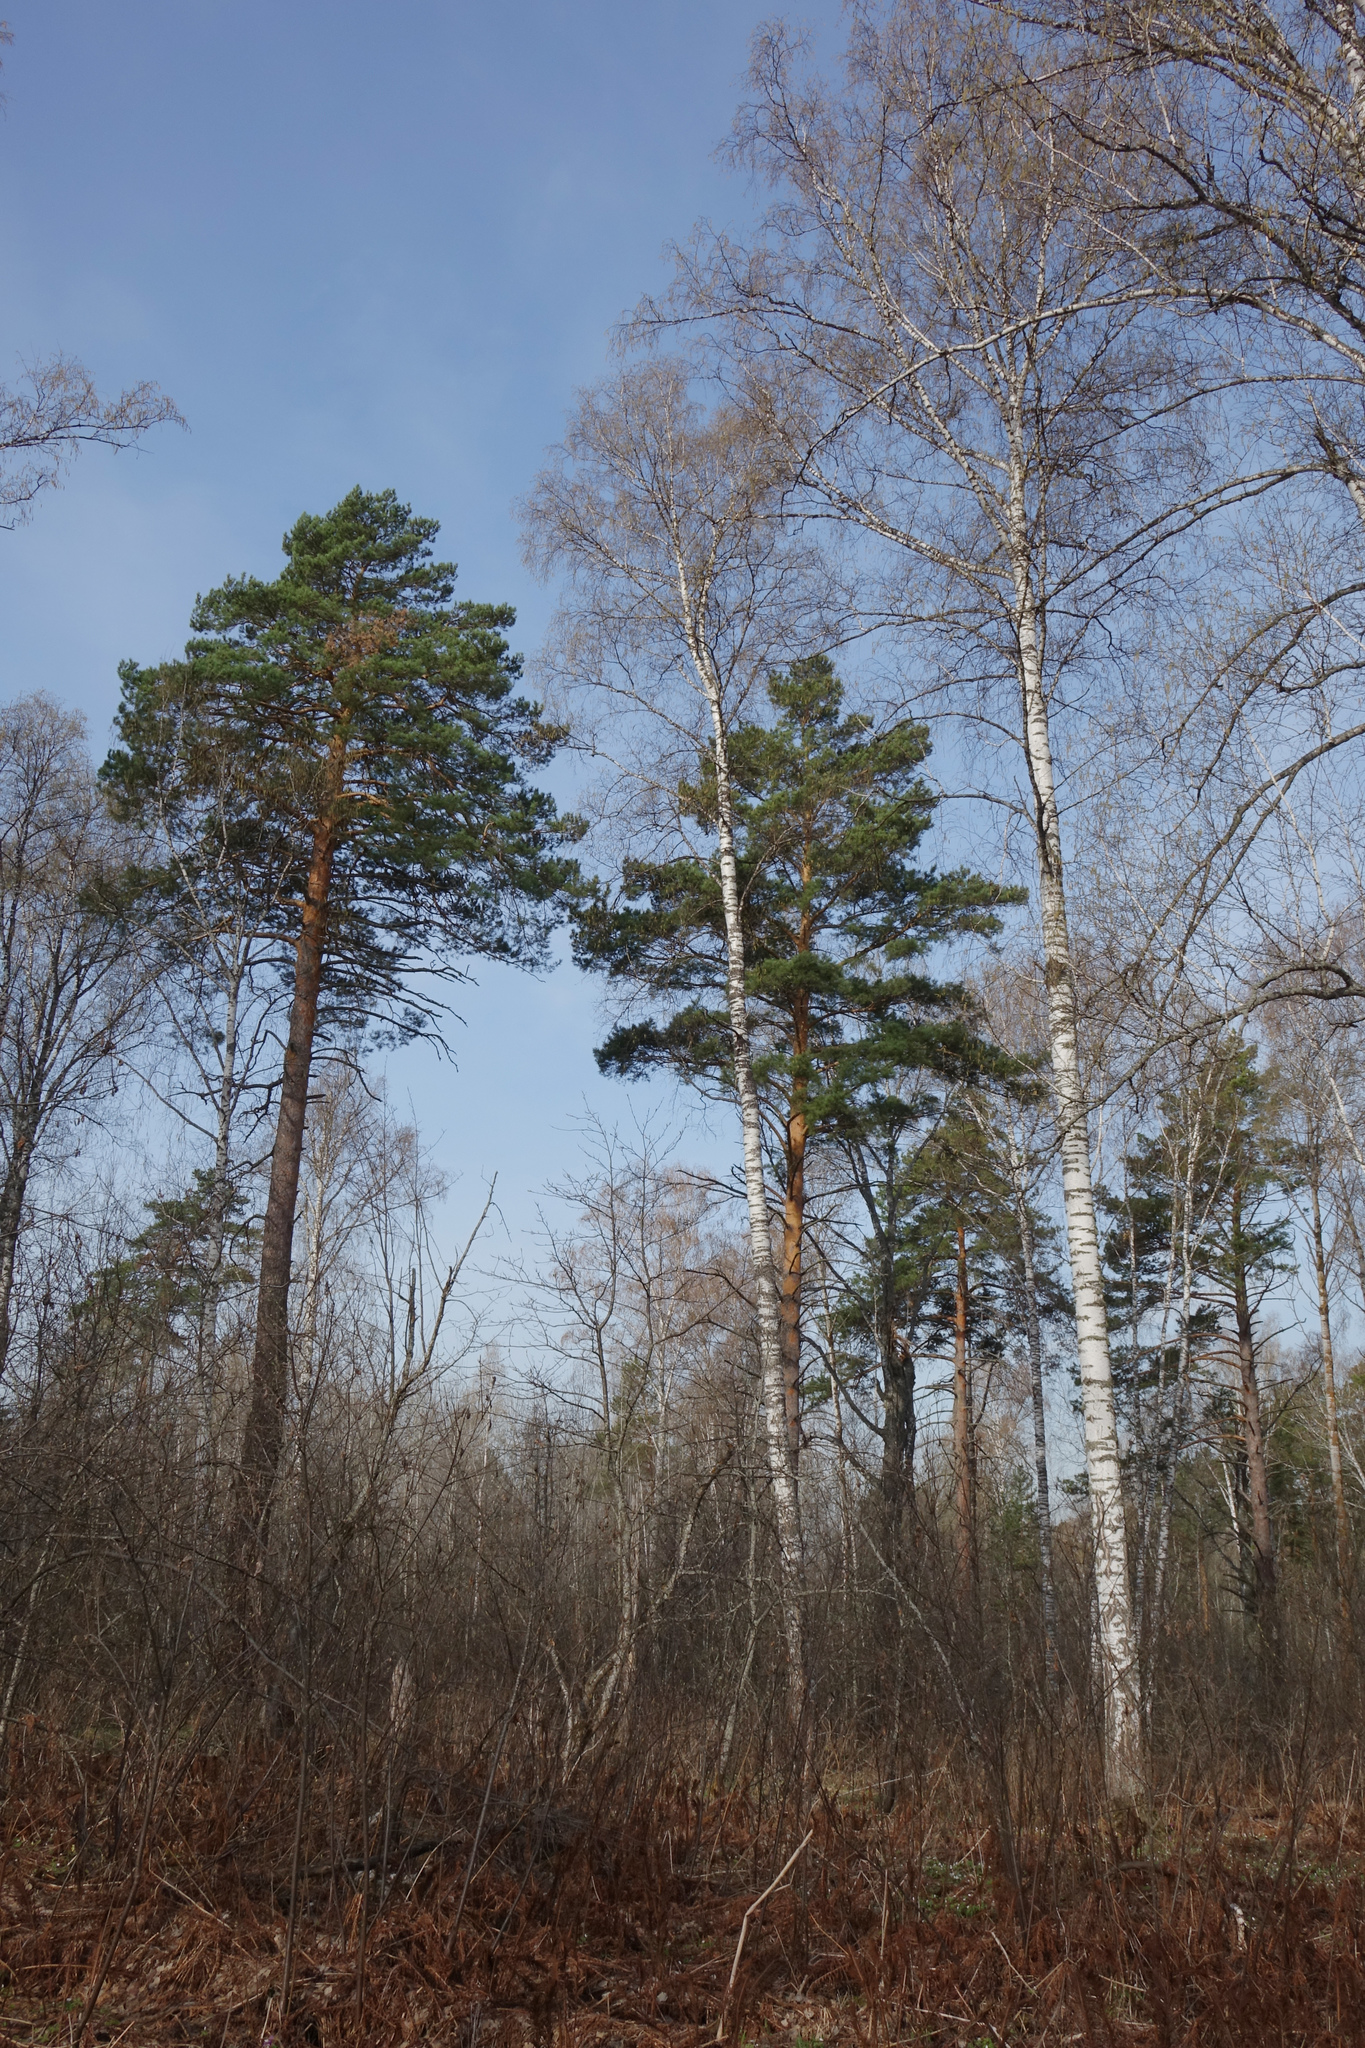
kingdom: Plantae
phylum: Tracheophyta
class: Pinopsida
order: Pinales
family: Pinaceae
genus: Pinus
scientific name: Pinus sylvestris
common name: Scots pine
